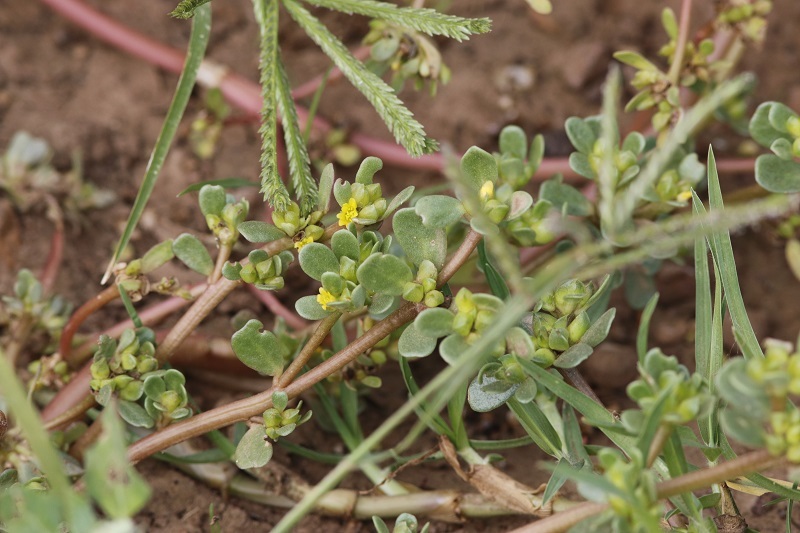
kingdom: Plantae
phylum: Tracheophyta
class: Magnoliopsida
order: Caryophyllales
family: Portulacaceae
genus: Portulaca
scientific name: Portulaca oleracea
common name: Common purslane
